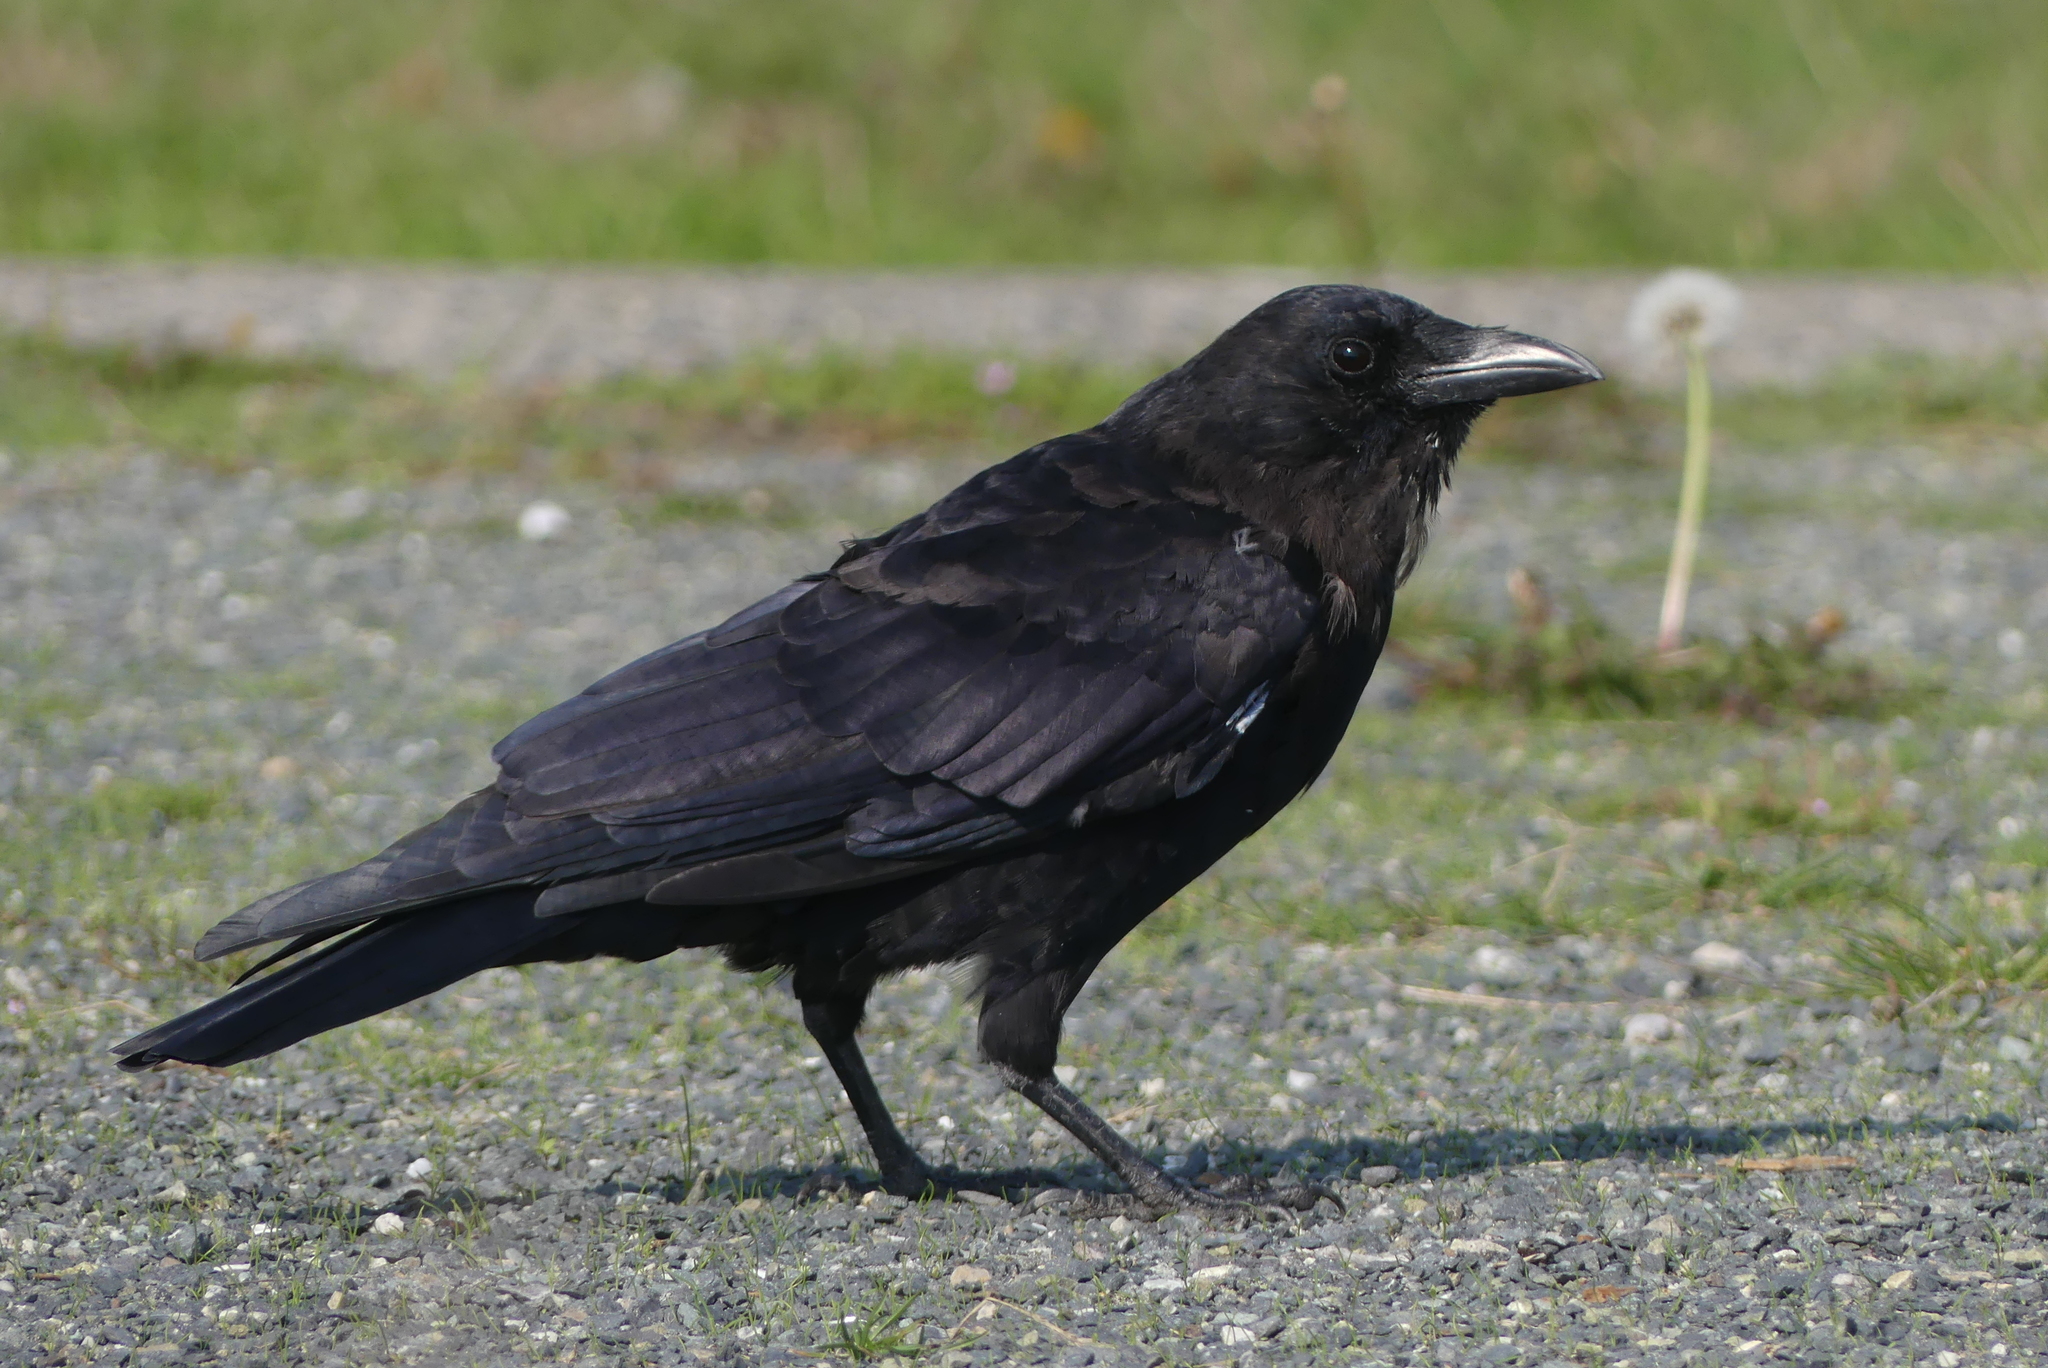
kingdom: Animalia
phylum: Chordata
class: Aves
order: Passeriformes
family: Corvidae
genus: Corvus
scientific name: Corvus brachyrhynchos
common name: American crow
